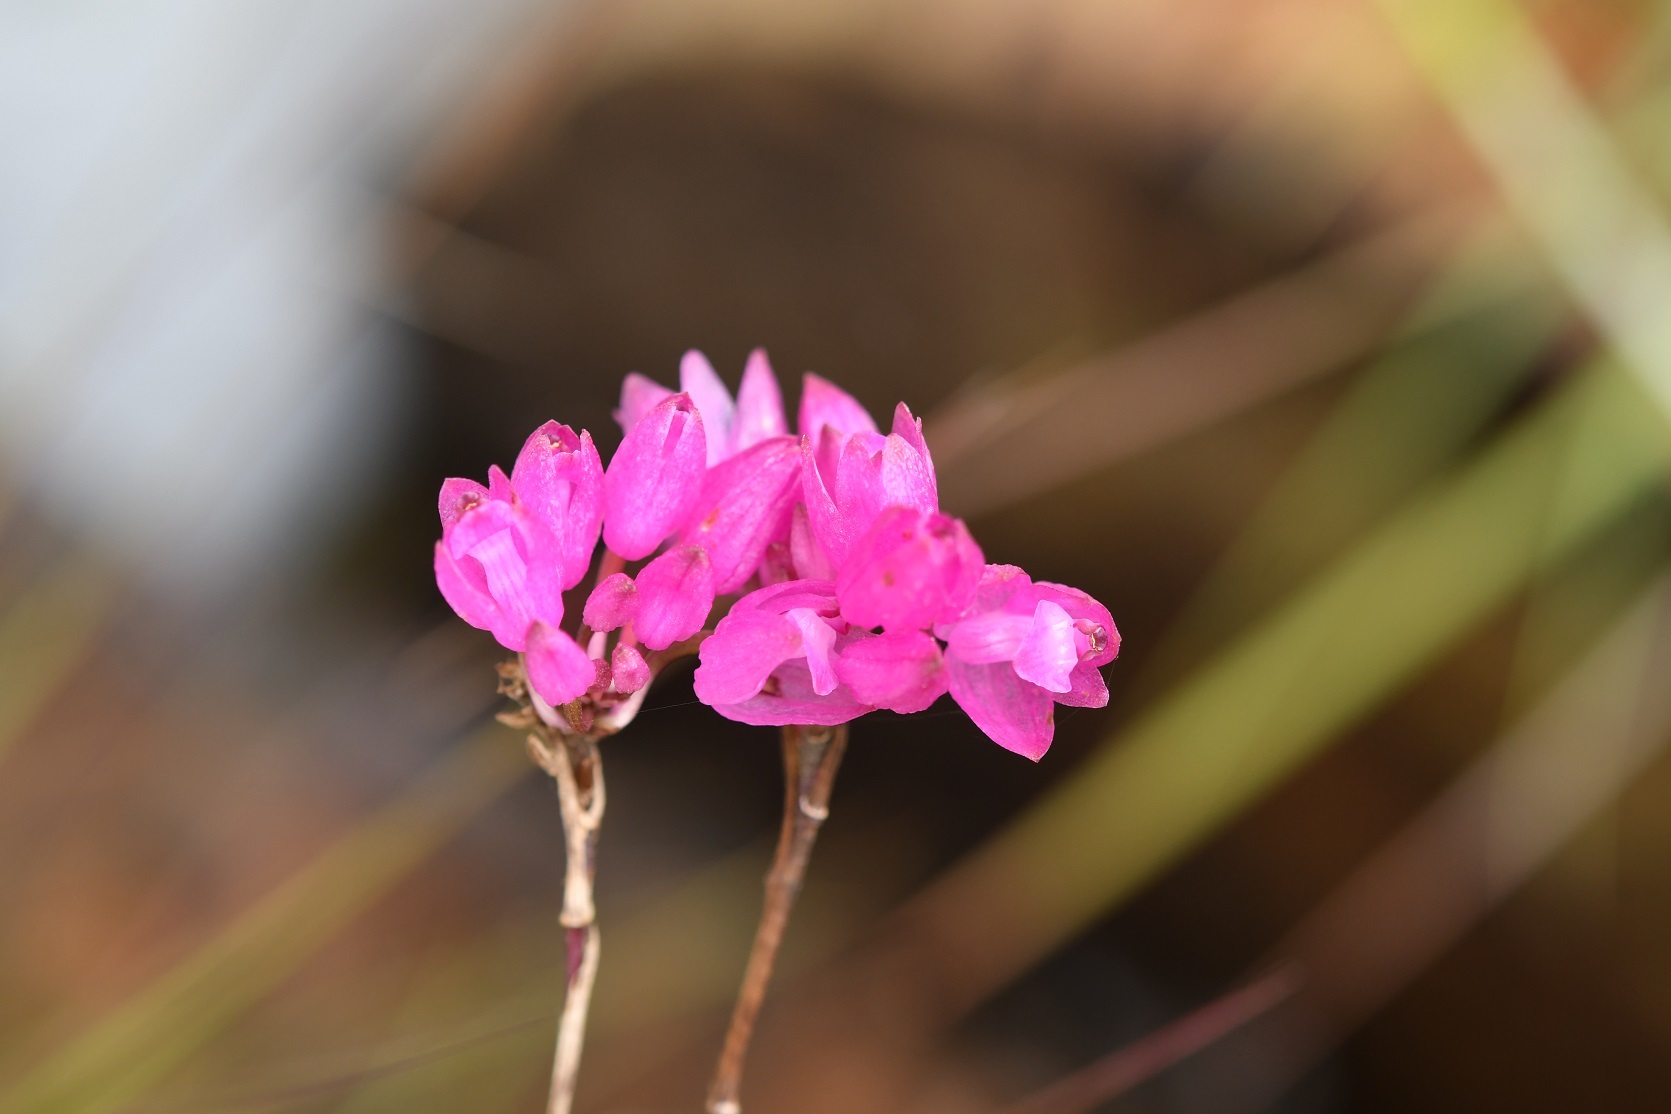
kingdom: Plantae
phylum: Tracheophyta
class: Liliopsida
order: Asparagales
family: Orchidaceae
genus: Domingoa
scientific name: Domingoa purpurea
